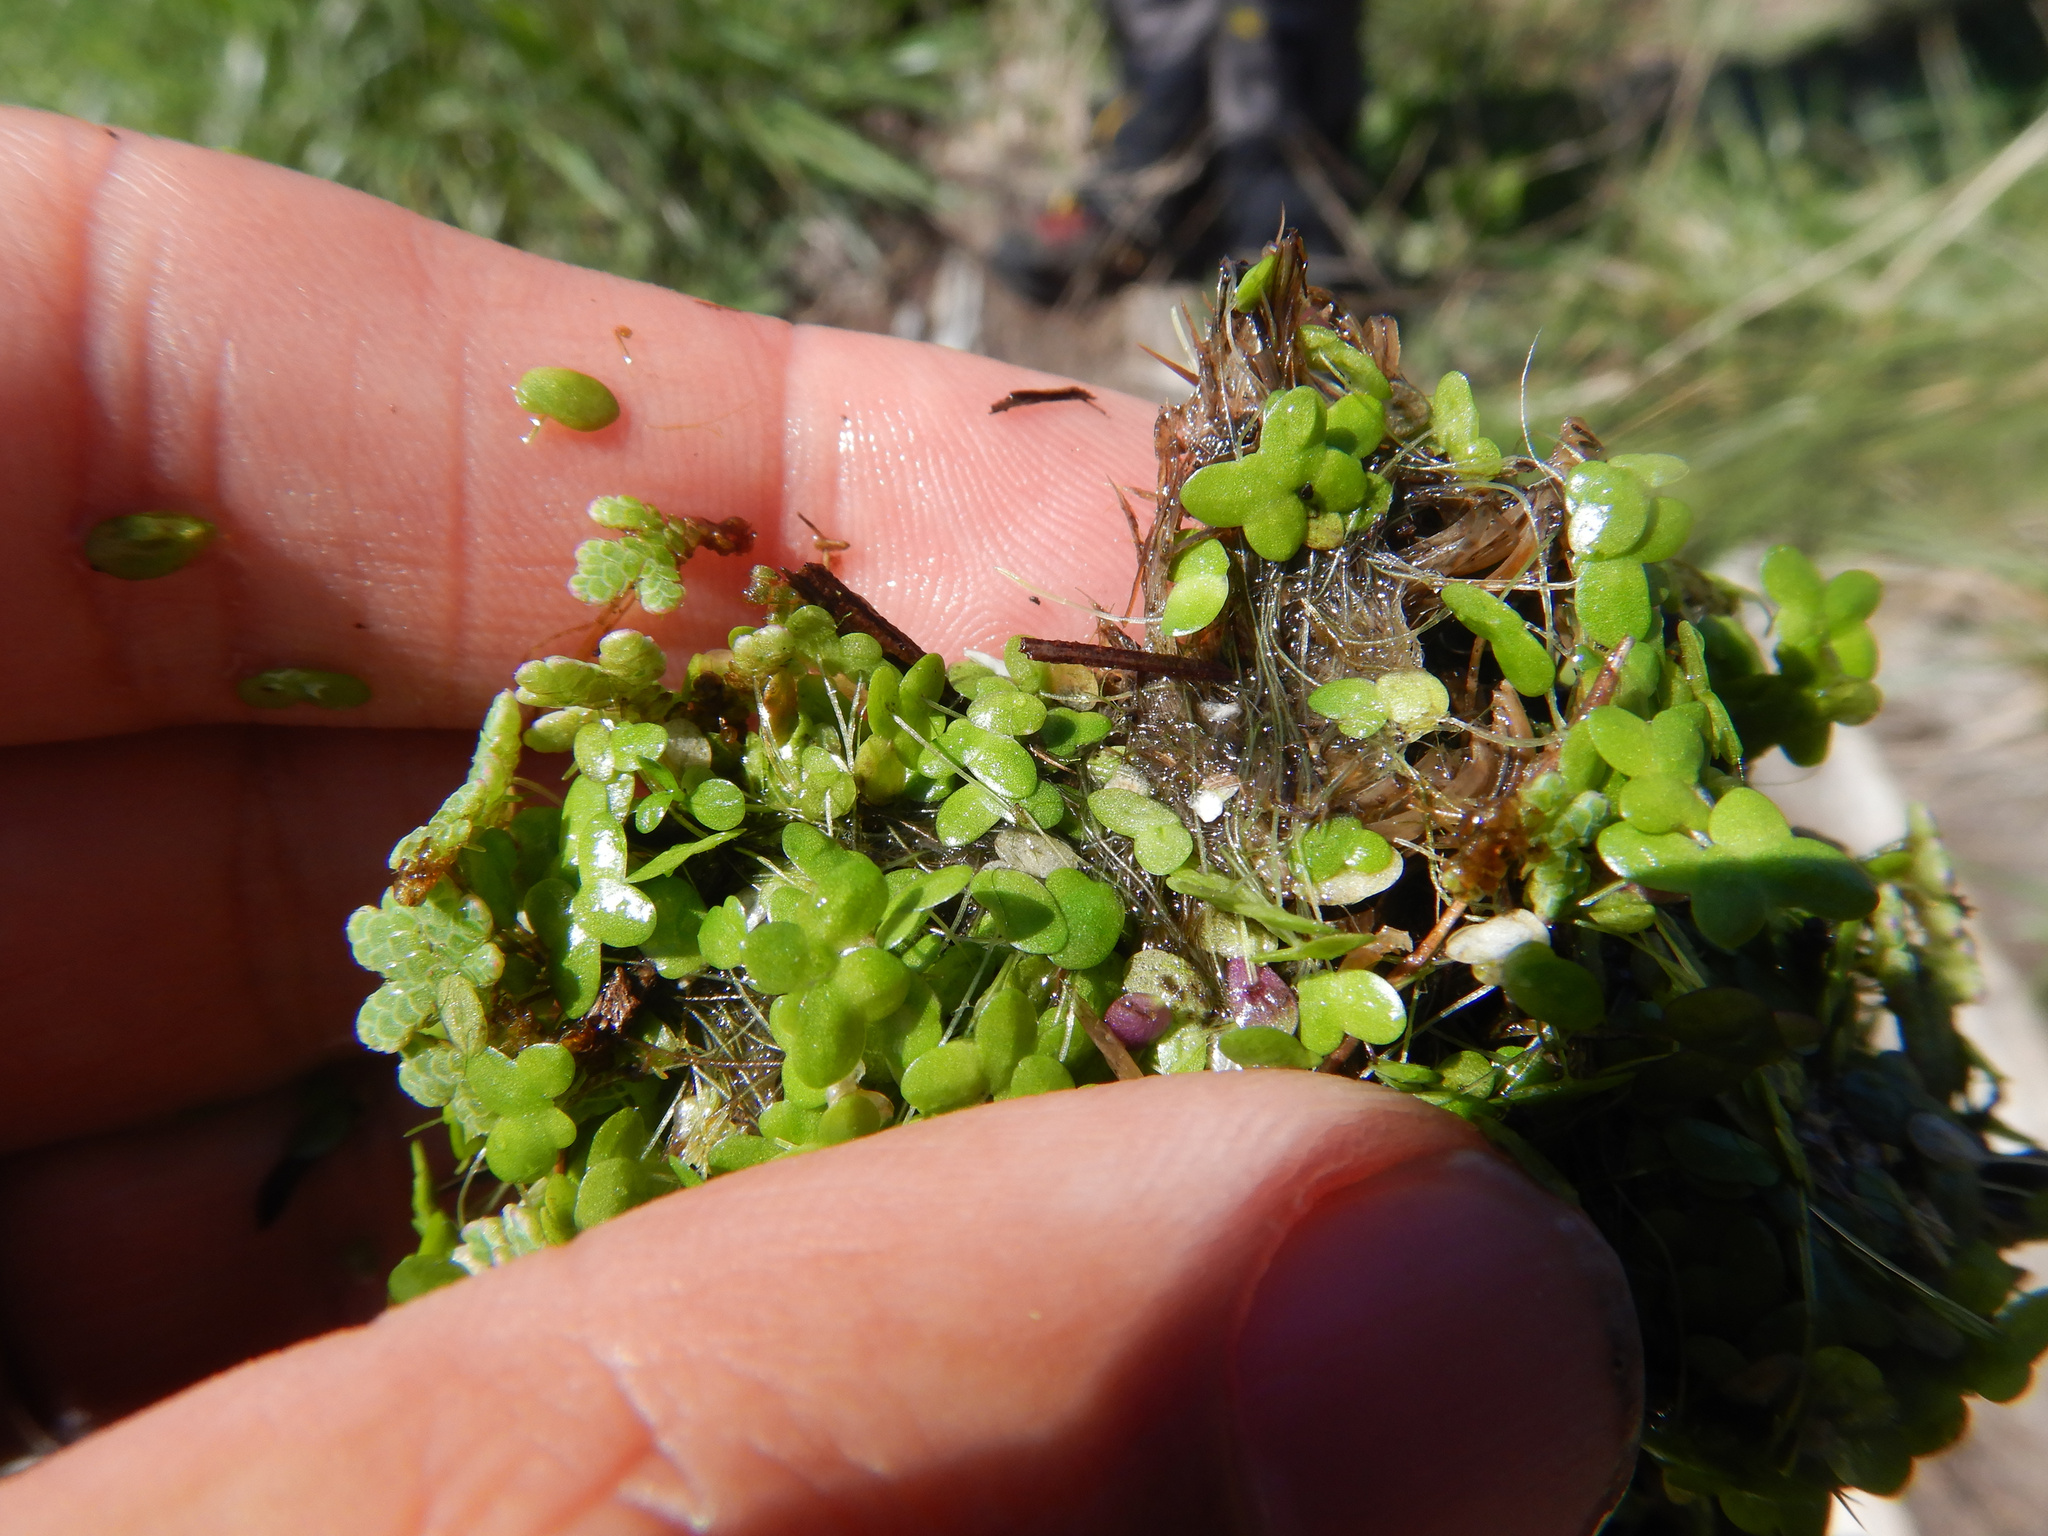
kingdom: Plantae
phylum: Tracheophyta
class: Liliopsida
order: Alismatales
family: Araceae
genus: Lemna
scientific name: Lemna minor
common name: Common duckweed
